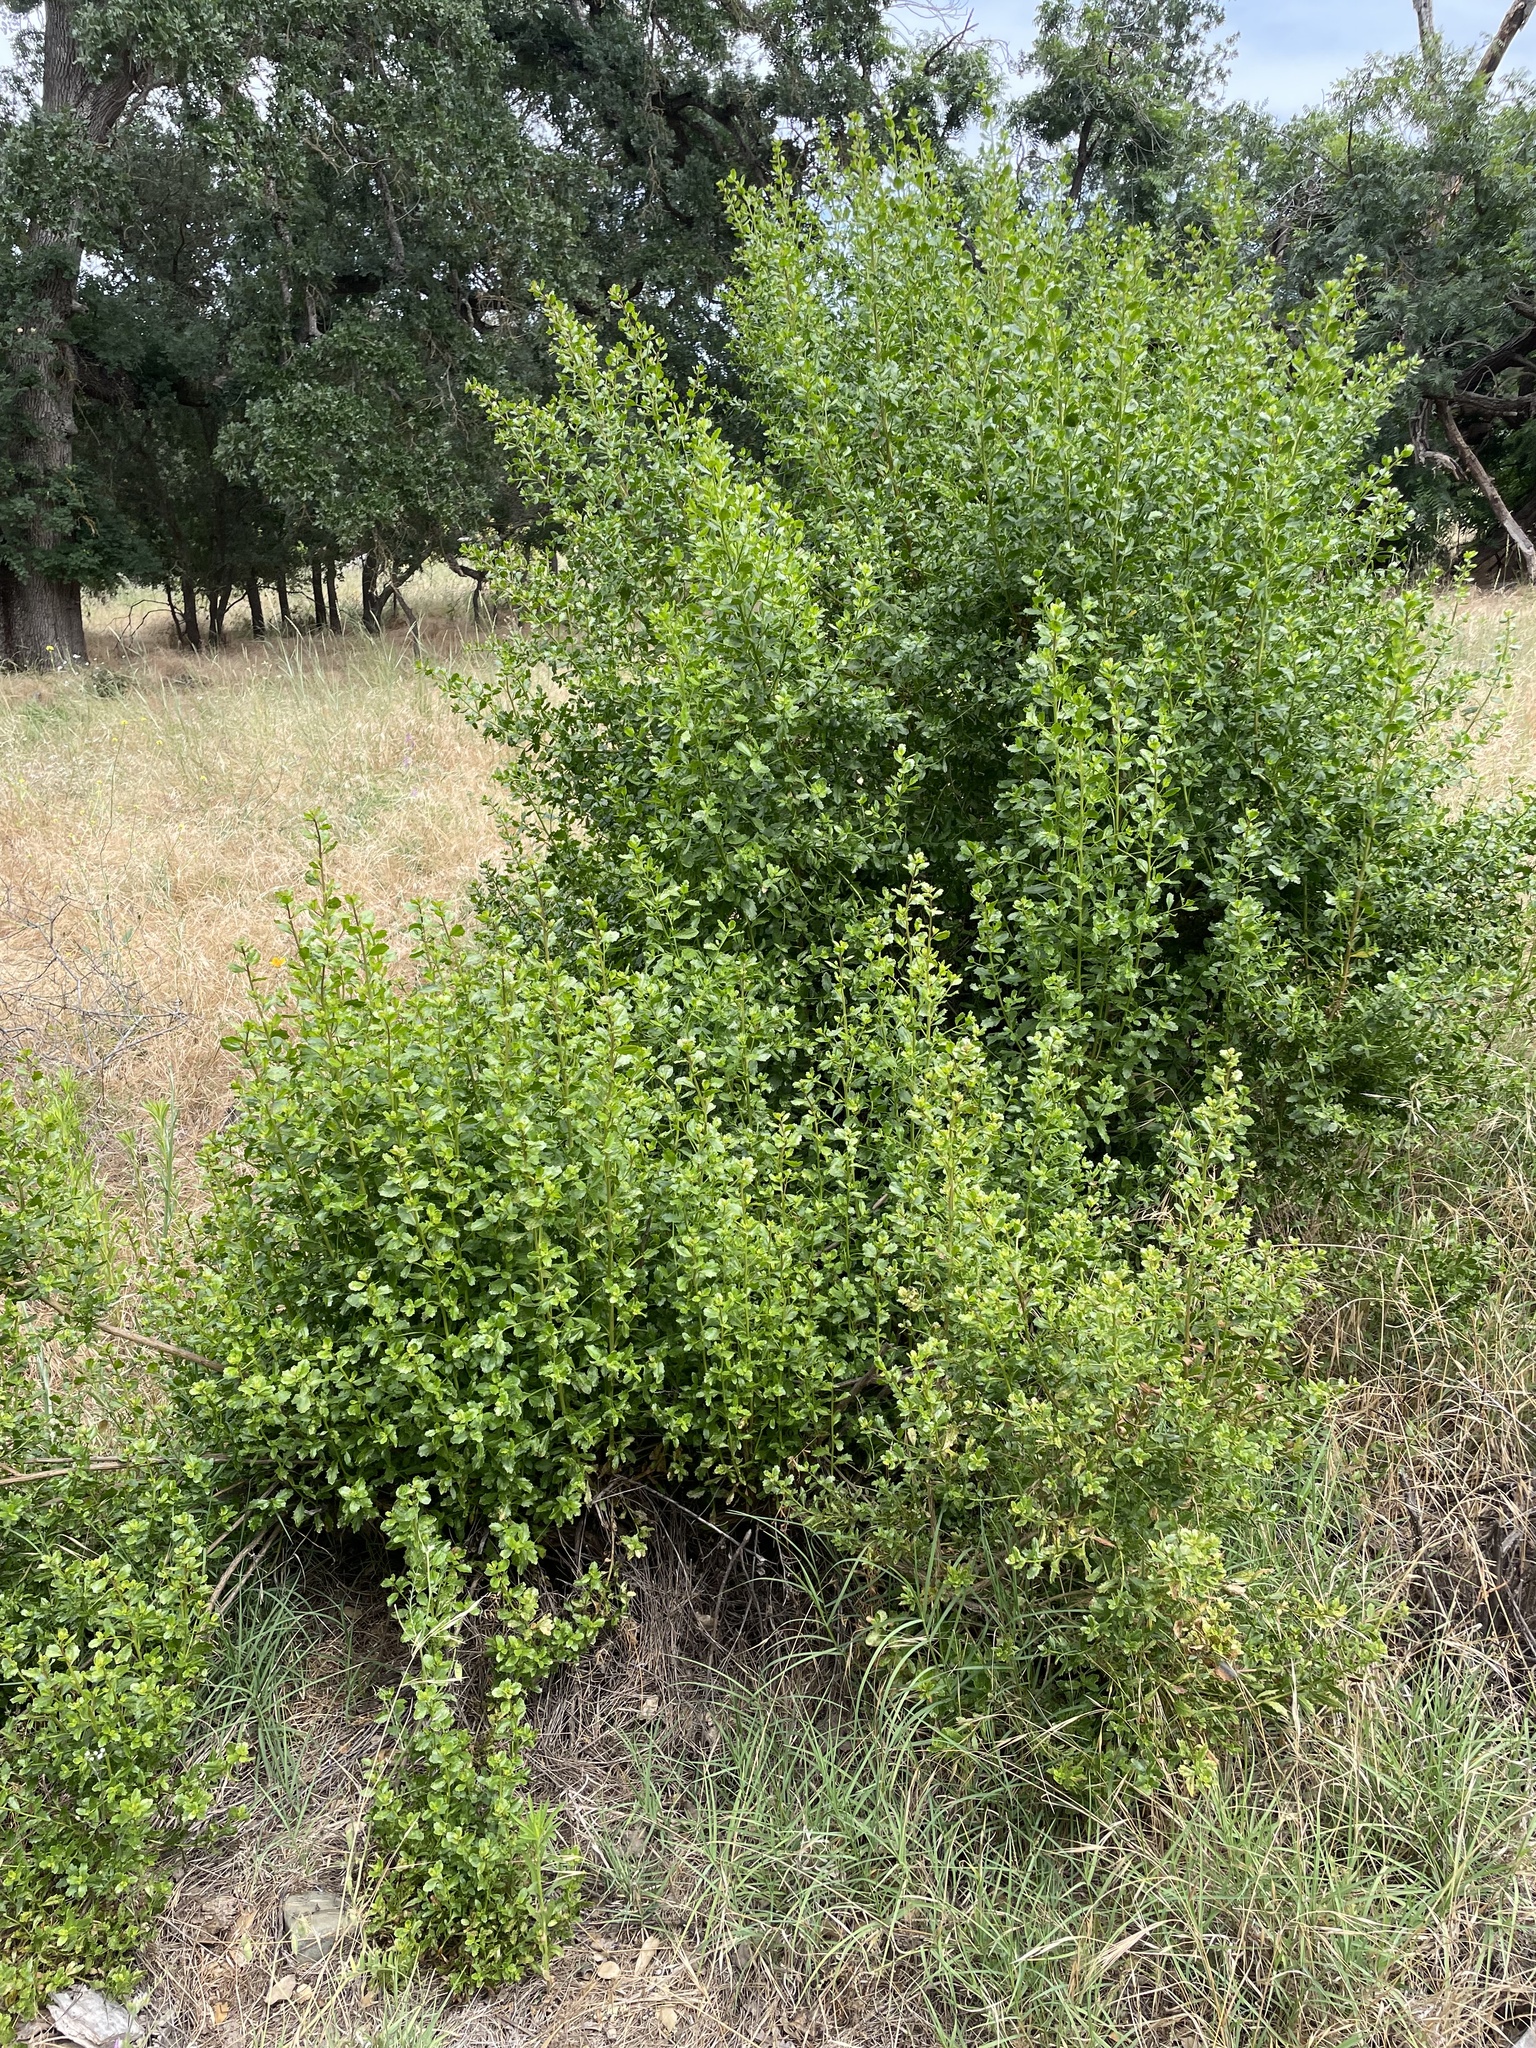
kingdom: Plantae
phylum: Tracheophyta
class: Magnoliopsida
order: Asterales
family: Asteraceae
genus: Baccharis
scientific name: Baccharis pilularis
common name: Coyotebrush
